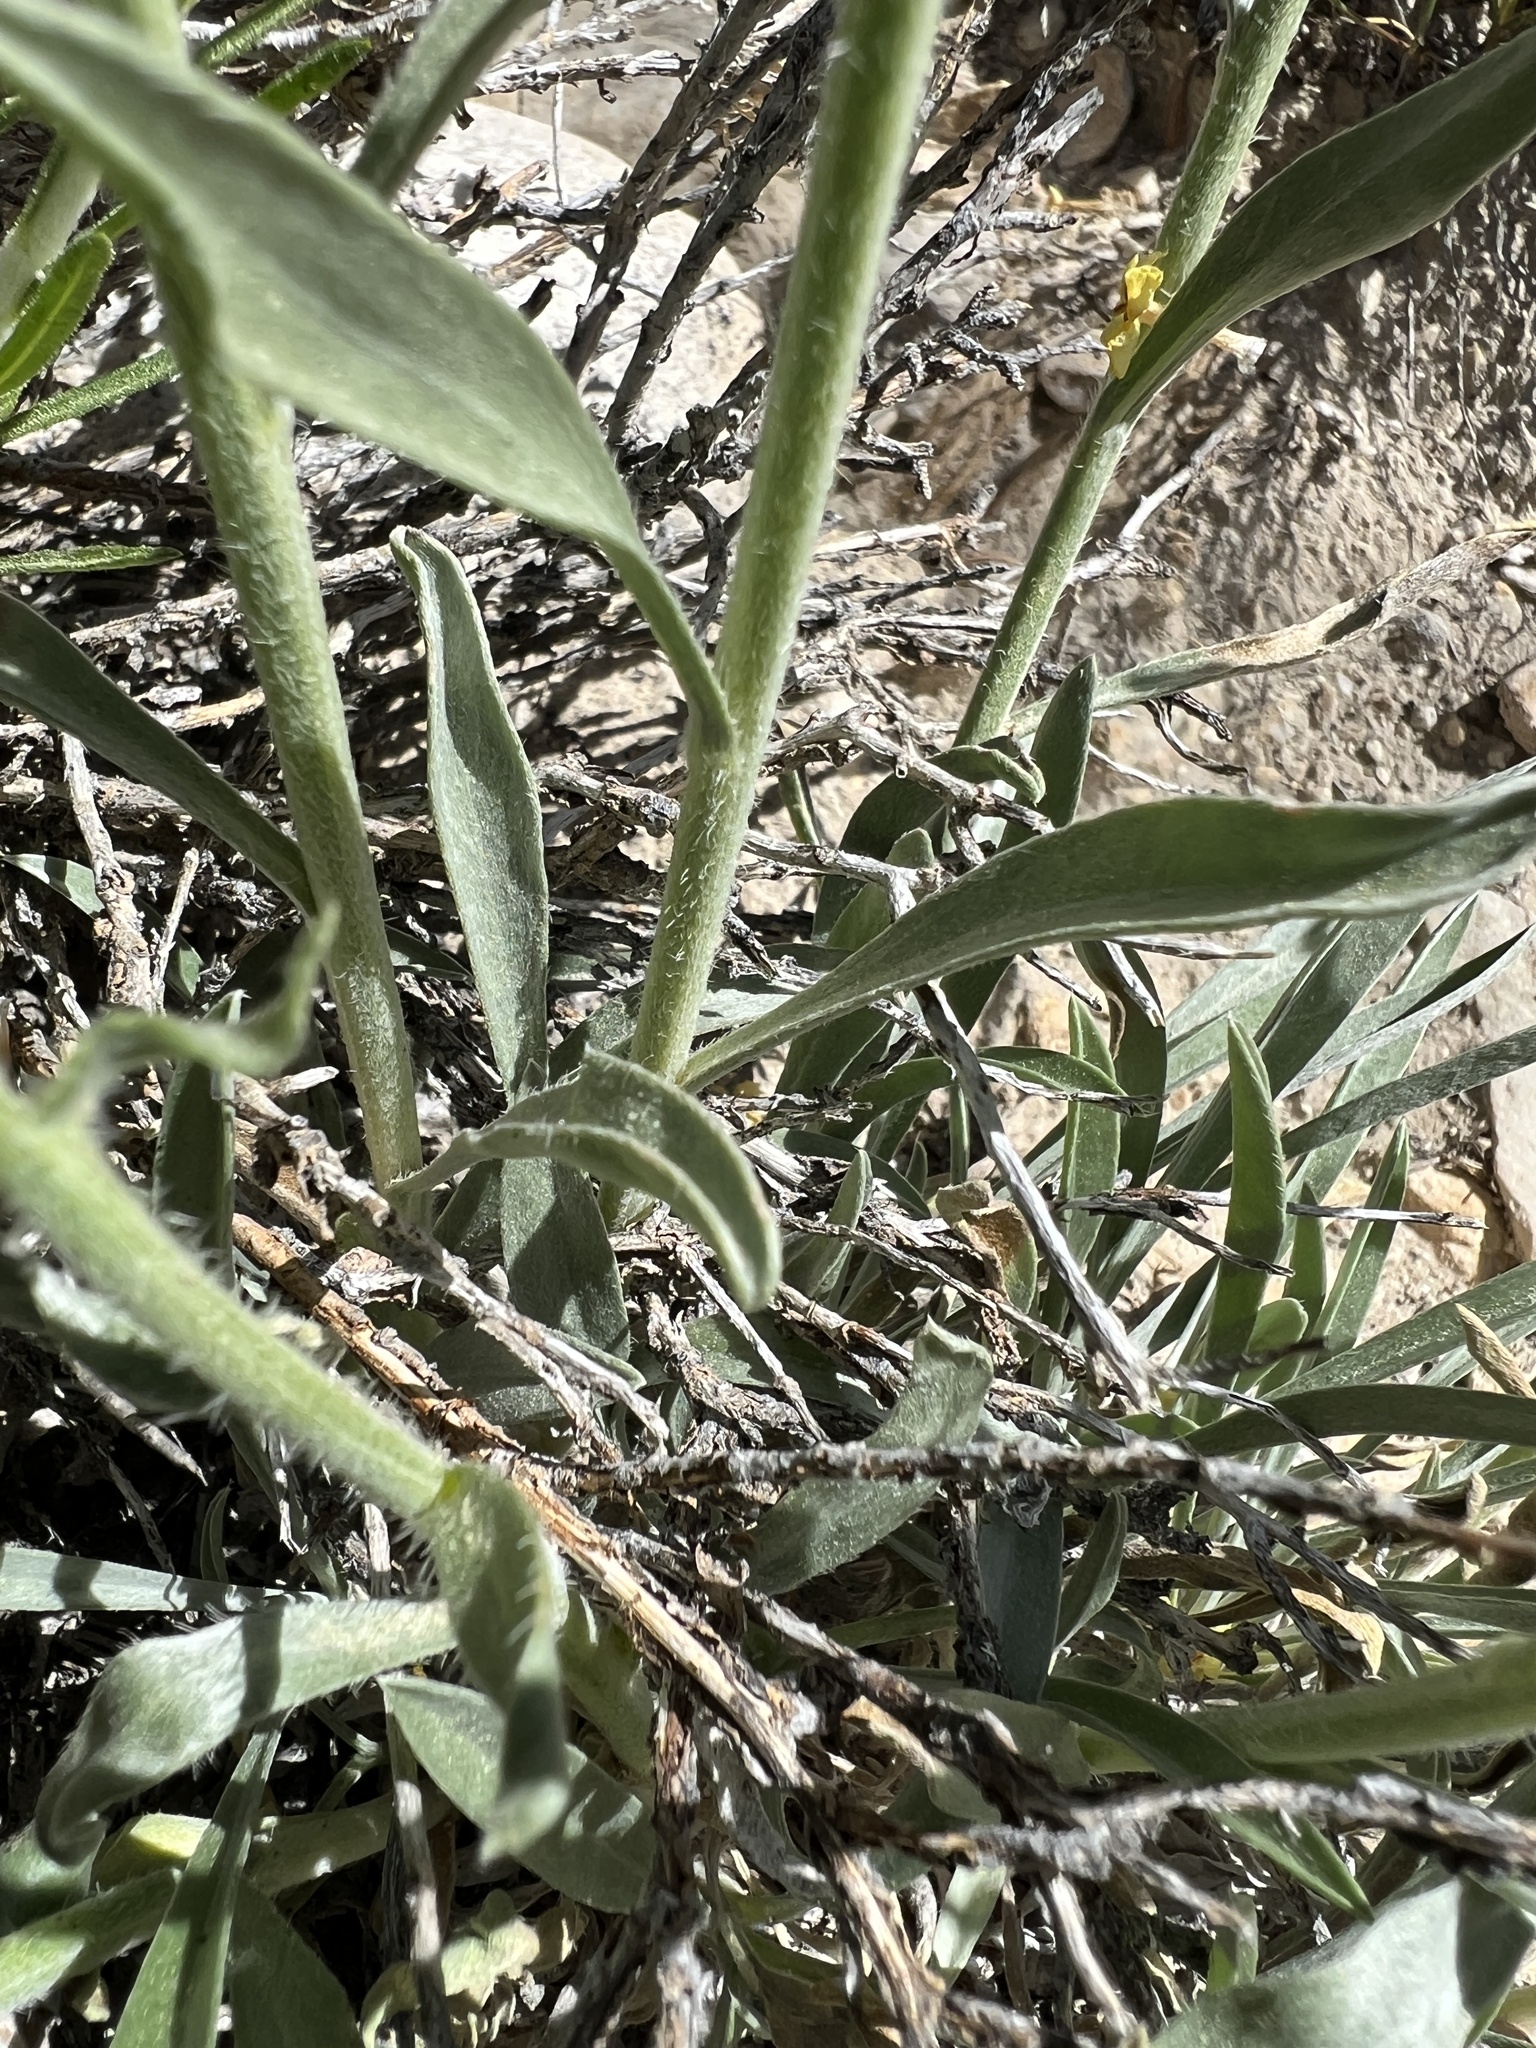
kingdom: Plantae
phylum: Tracheophyta
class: Magnoliopsida
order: Boraginales
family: Boraginaceae
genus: Oreocarya
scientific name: Oreocarya confertiflora
